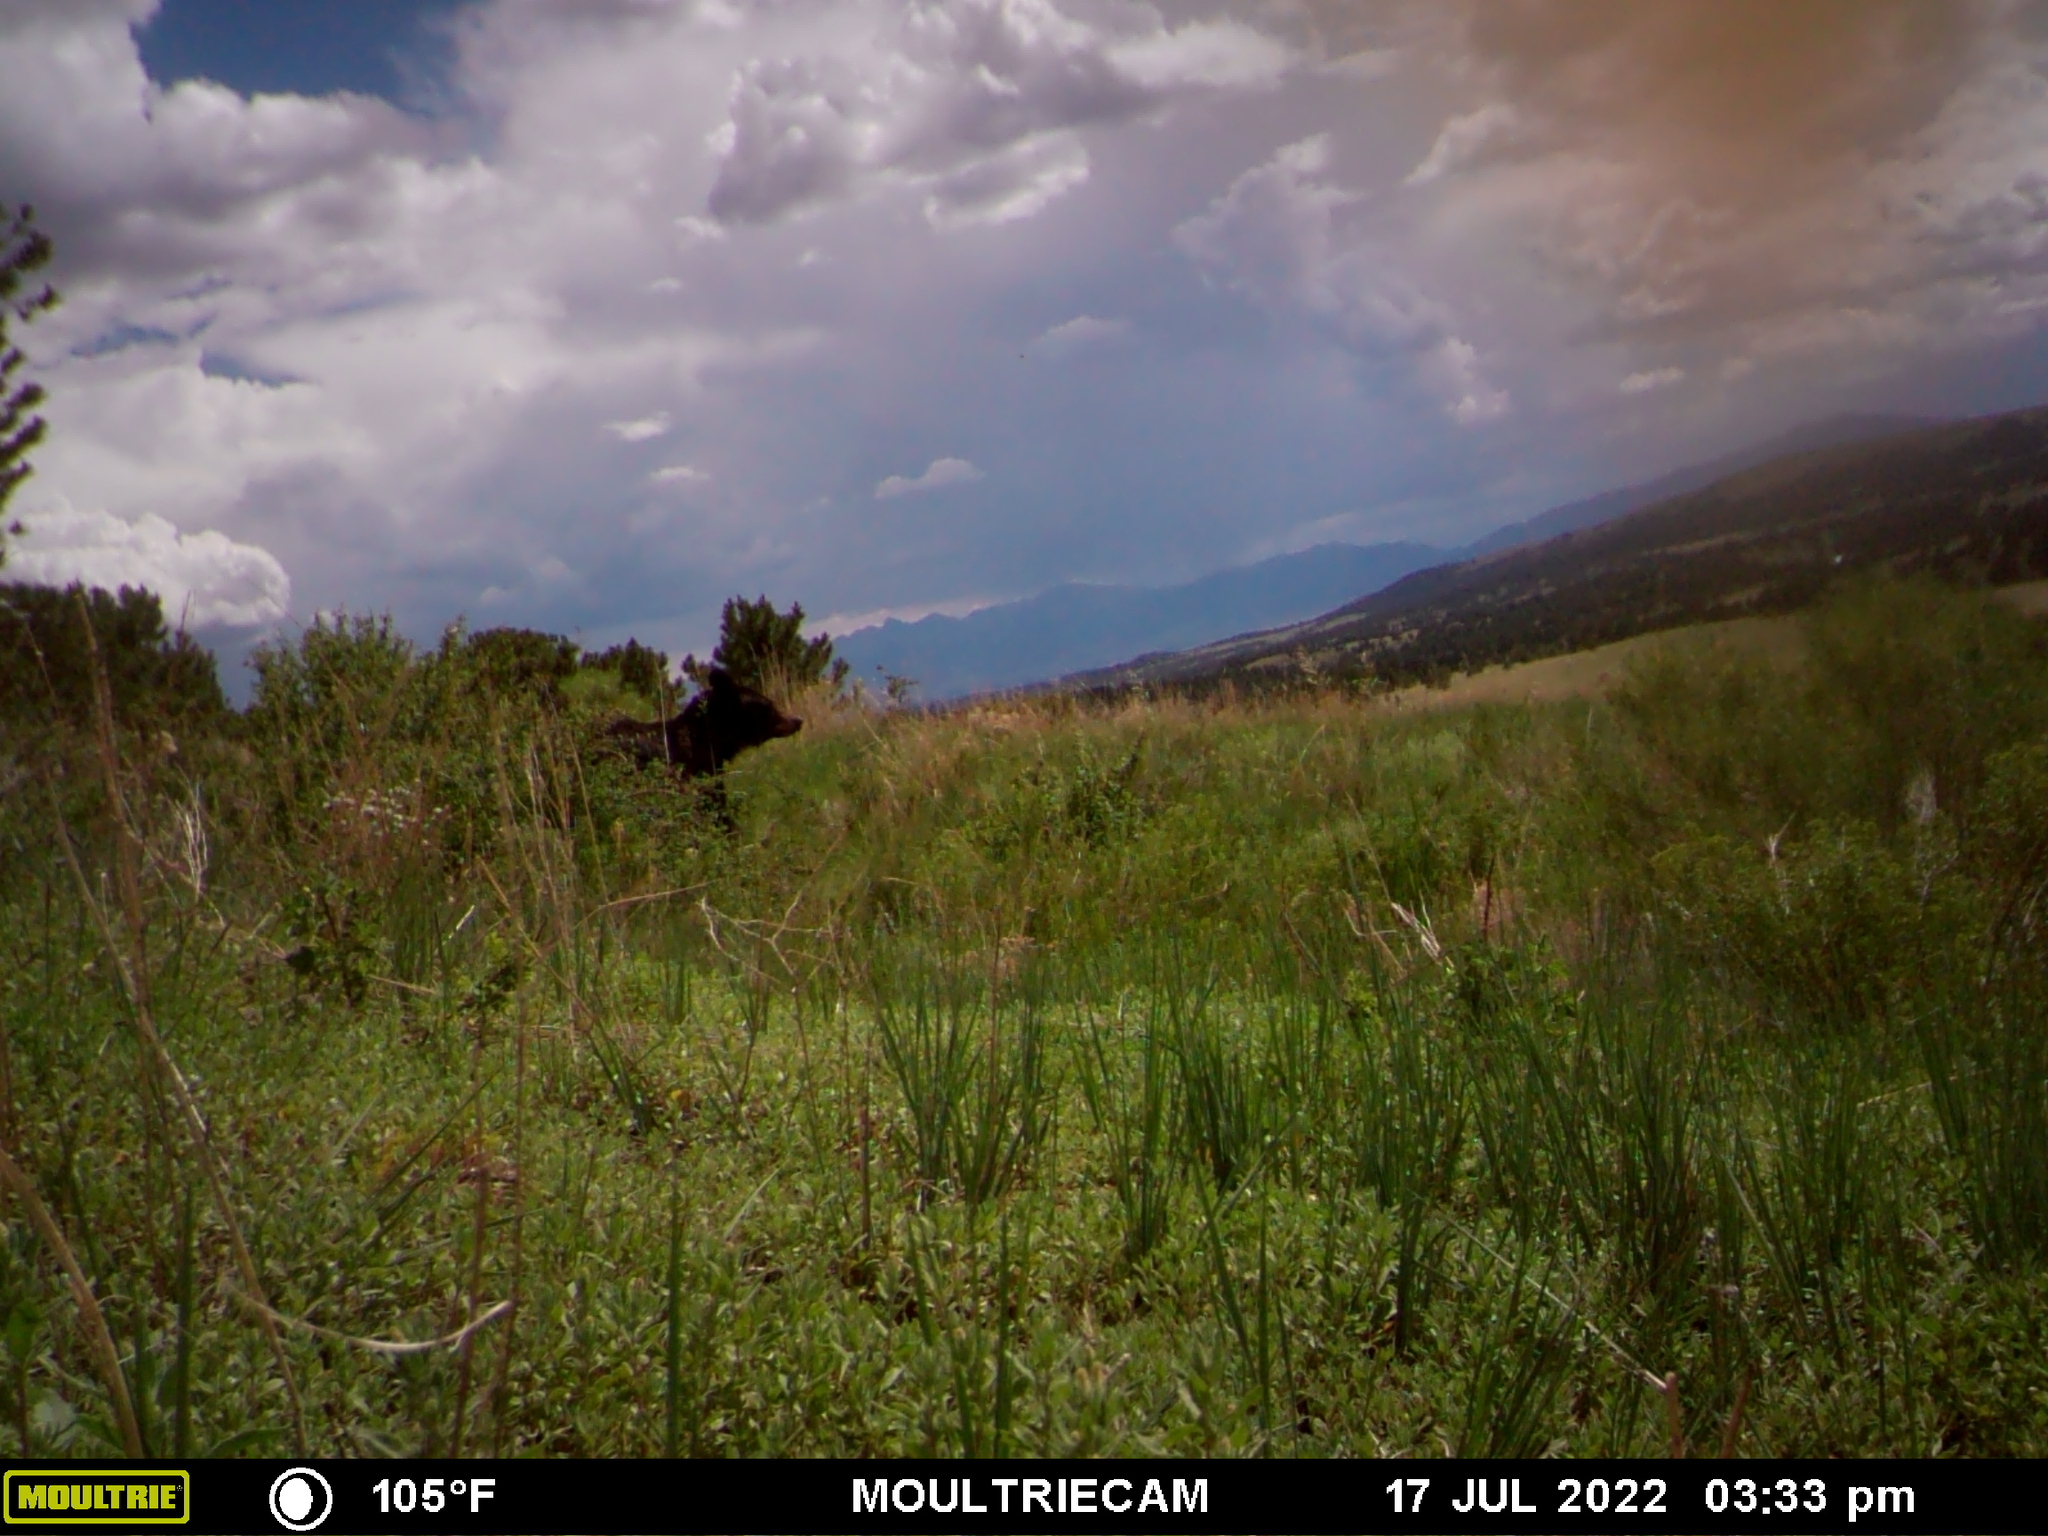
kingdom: Animalia
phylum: Chordata
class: Mammalia
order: Carnivora
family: Ursidae
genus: Ursus
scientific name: Ursus americanus
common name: American black bear
